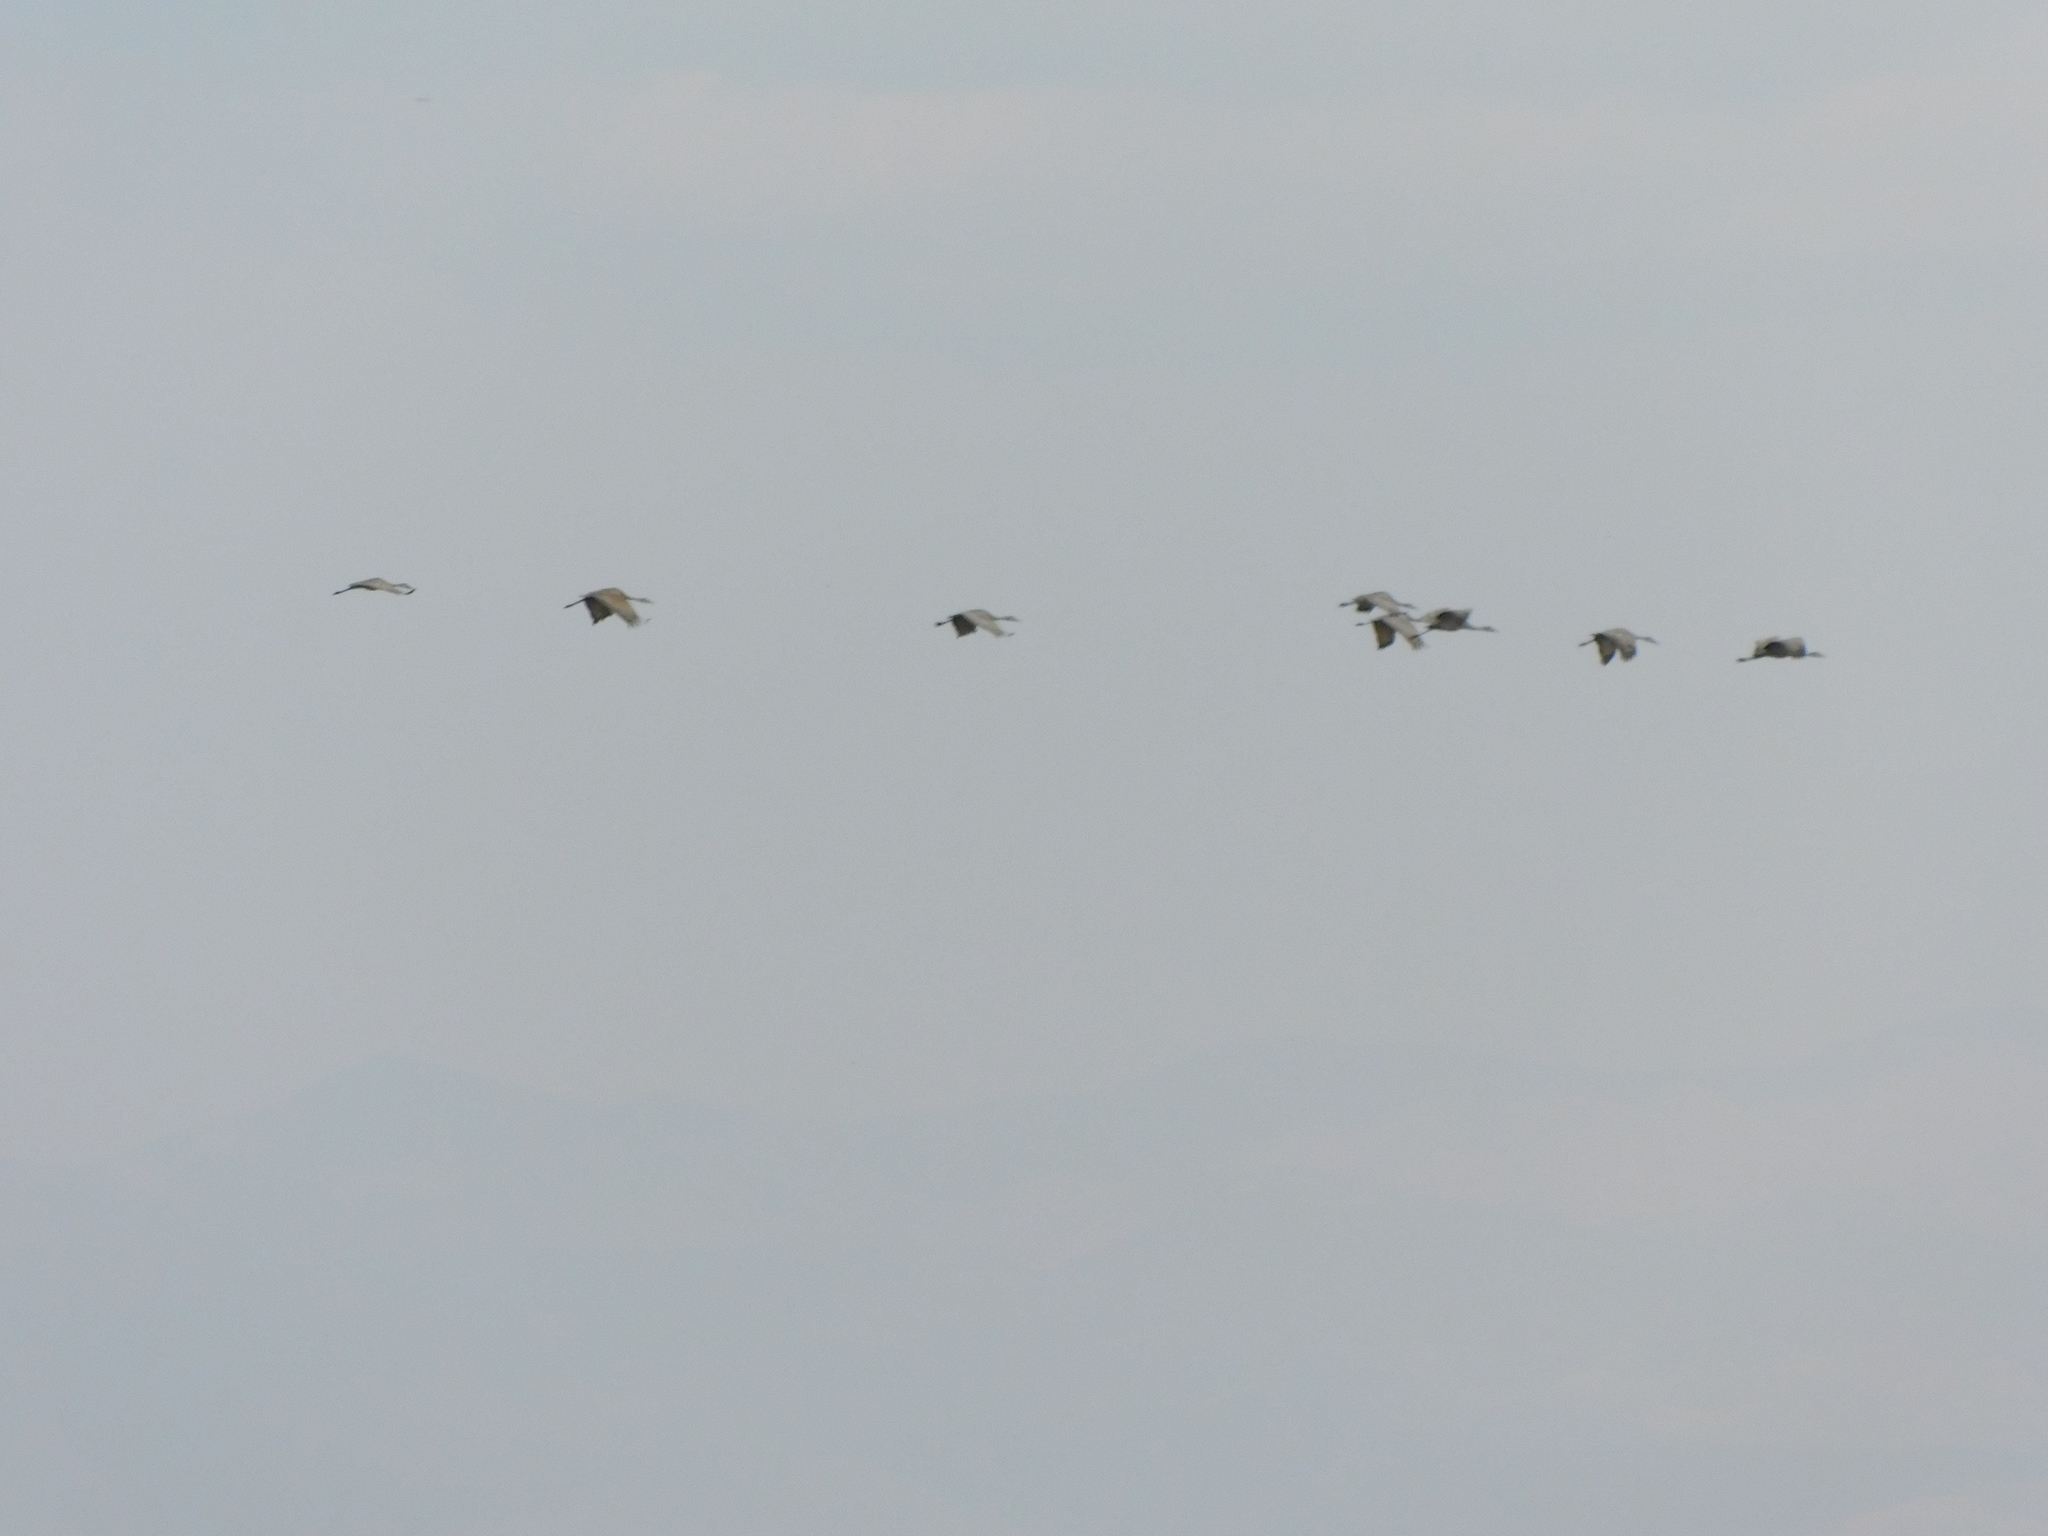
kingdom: Animalia
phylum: Chordata
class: Aves
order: Gruiformes
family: Gruidae
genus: Grus
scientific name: Grus canadensis
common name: Sandhill crane
